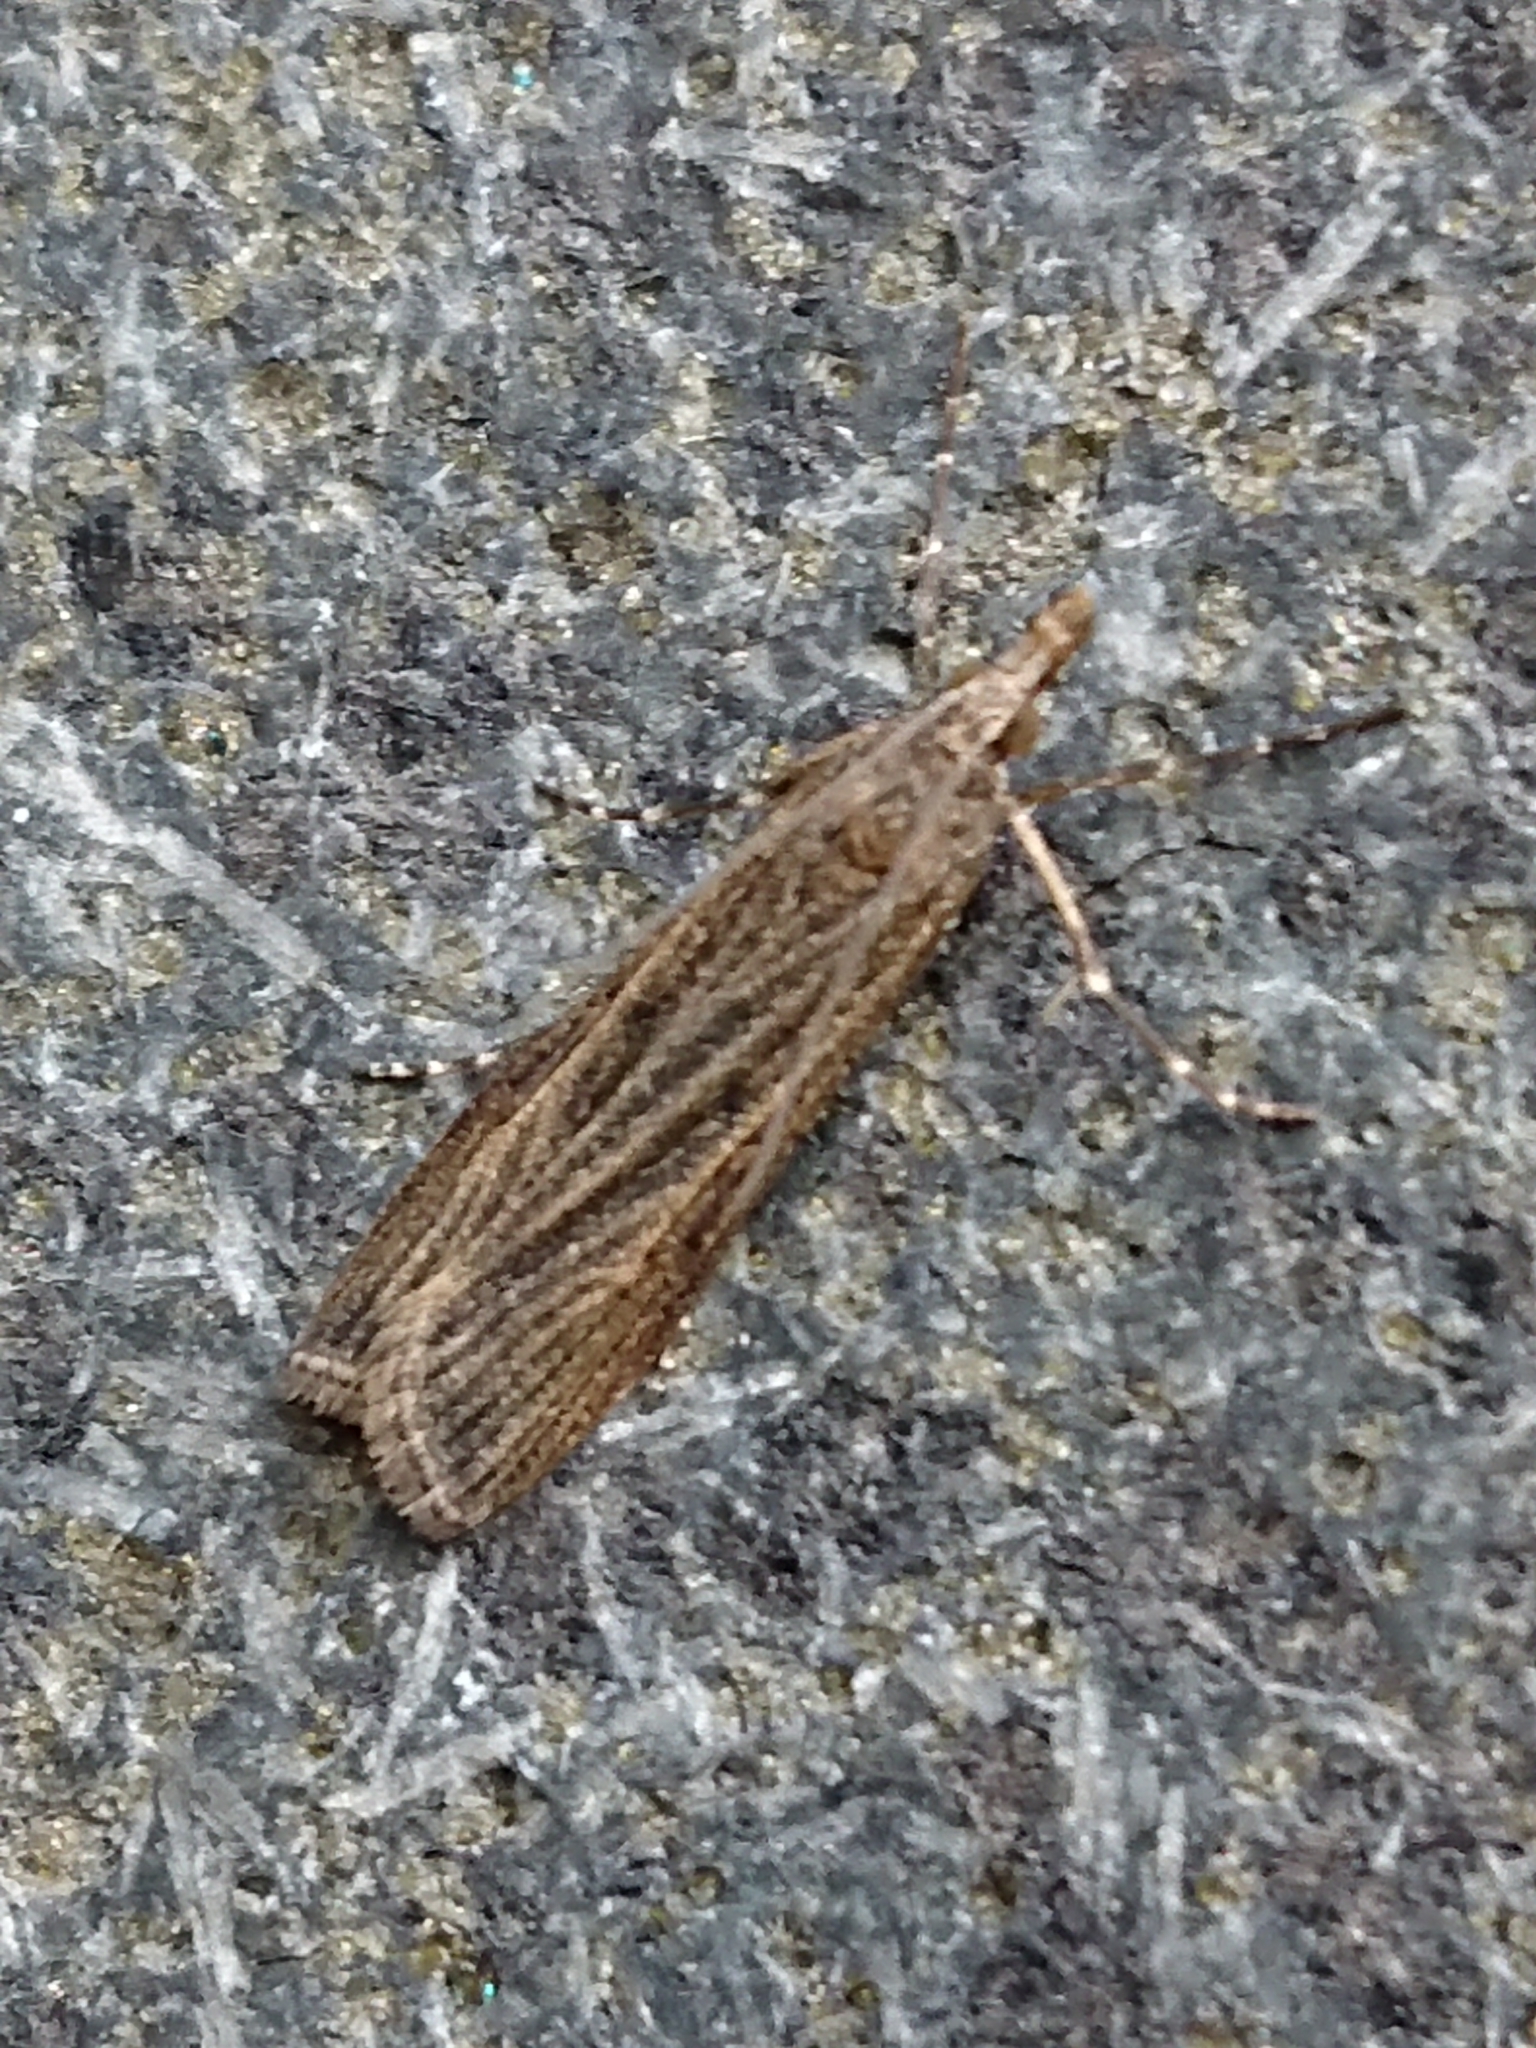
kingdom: Animalia
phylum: Arthropoda
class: Insecta
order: Lepidoptera
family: Crambidae
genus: Eudonia
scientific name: Eudonia atmogramma
